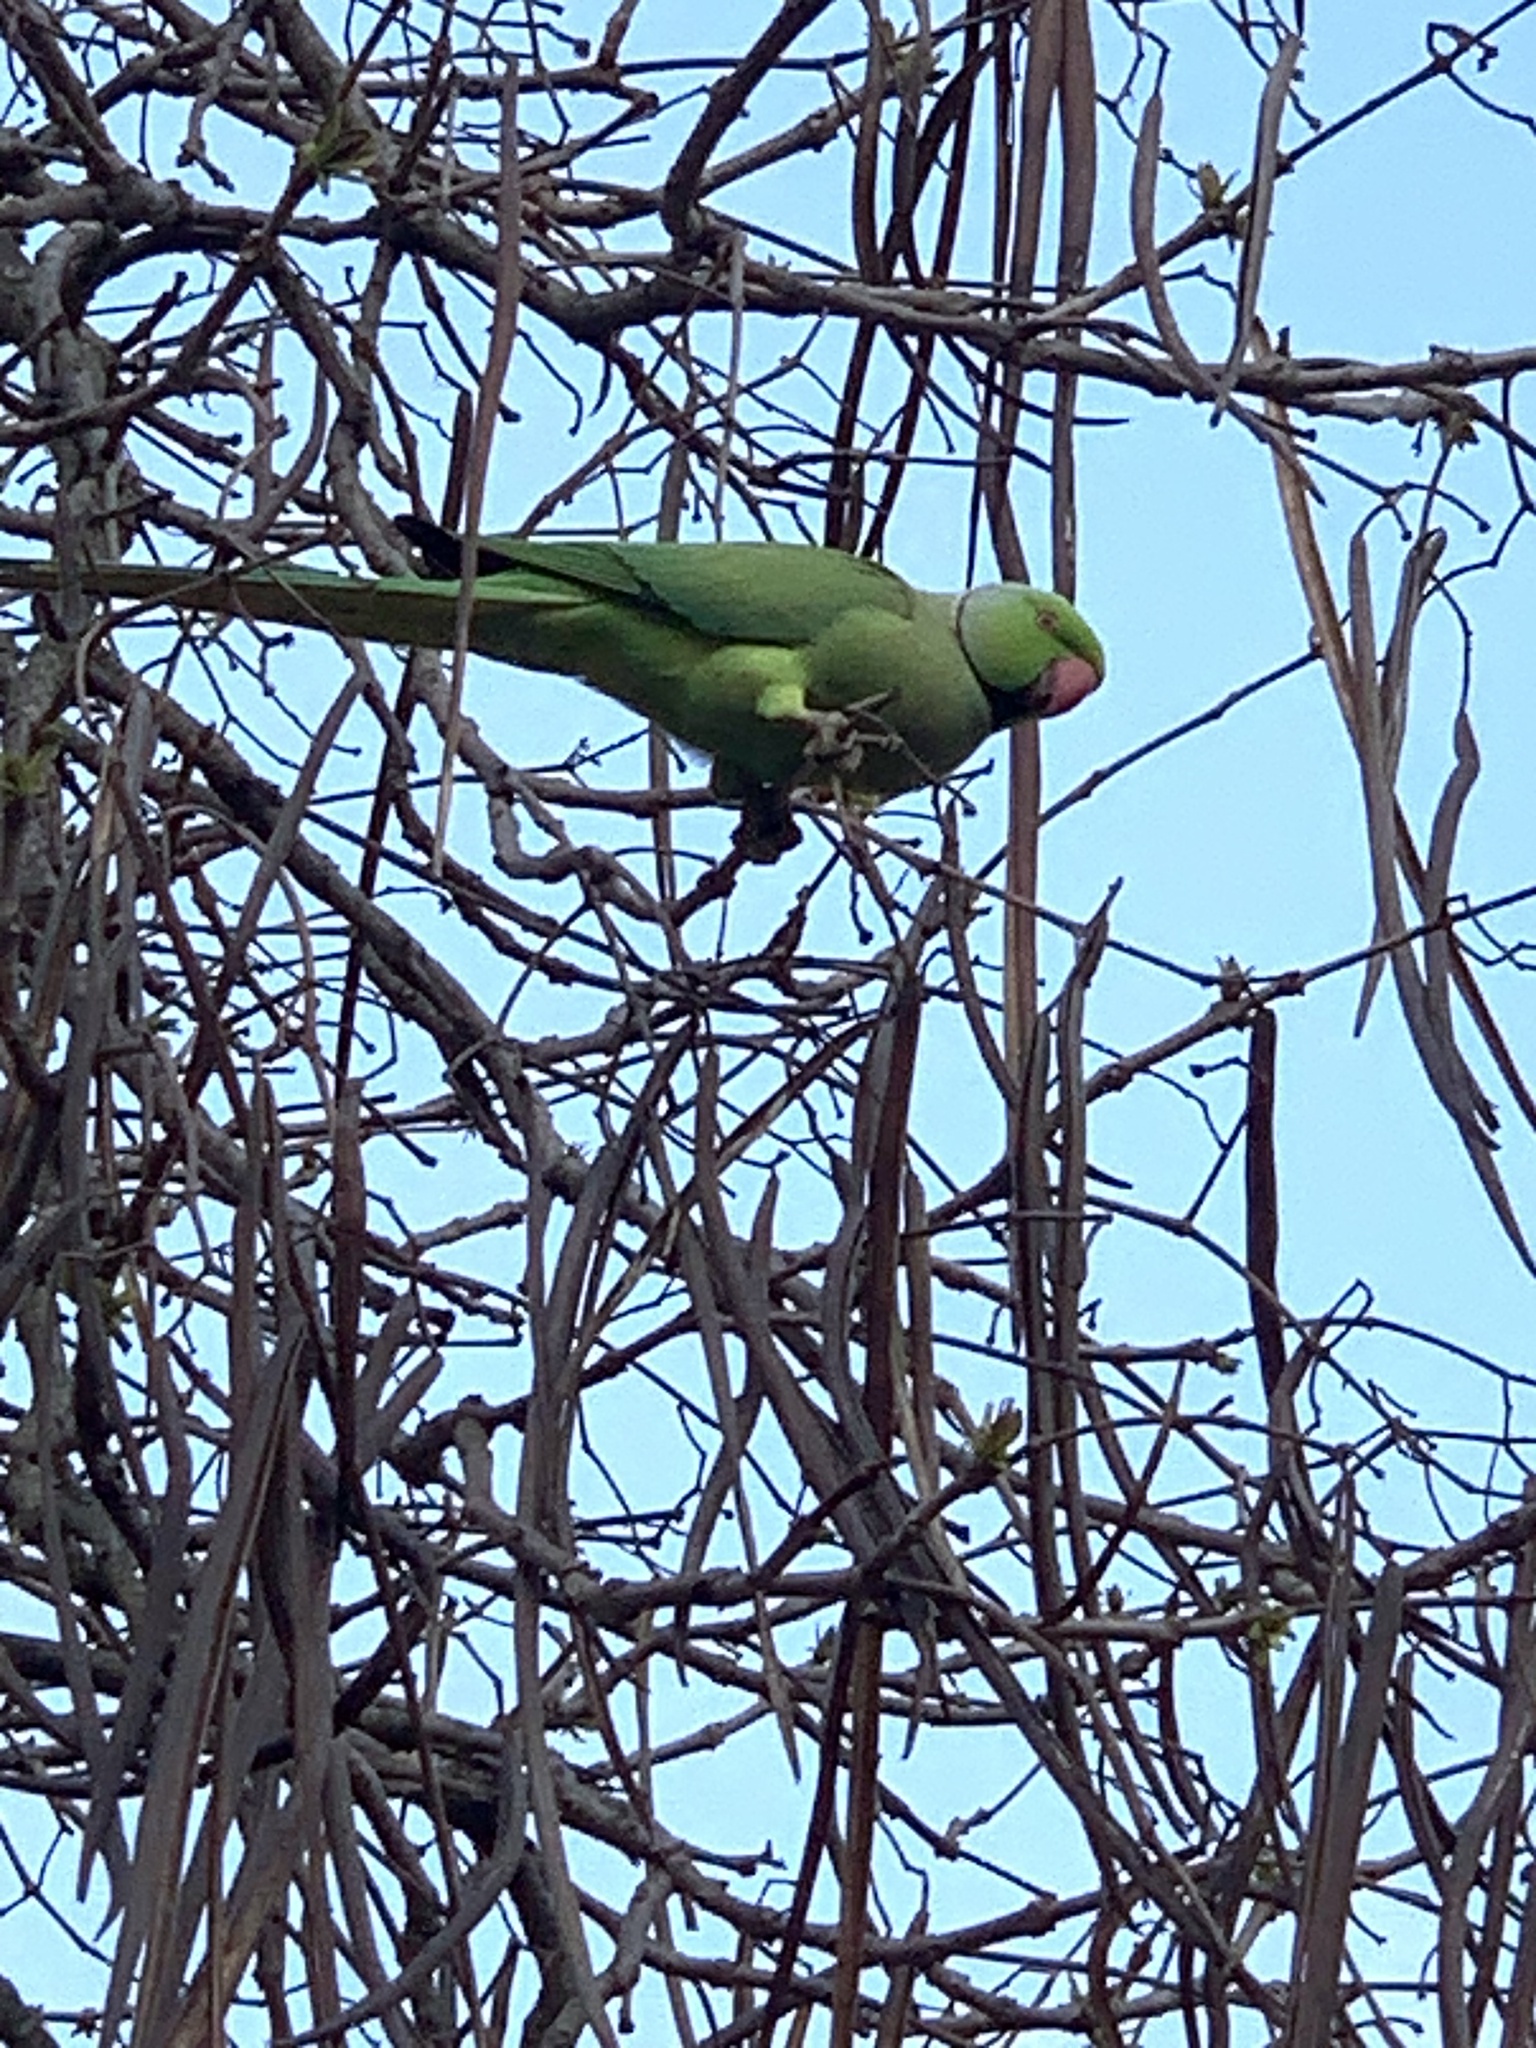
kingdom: Animalia
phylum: Chordata
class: Aves
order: Psittaciformes
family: Psittacidae
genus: Psittacula
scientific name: Psittacula krameri
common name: Rose-ringed parakeet
